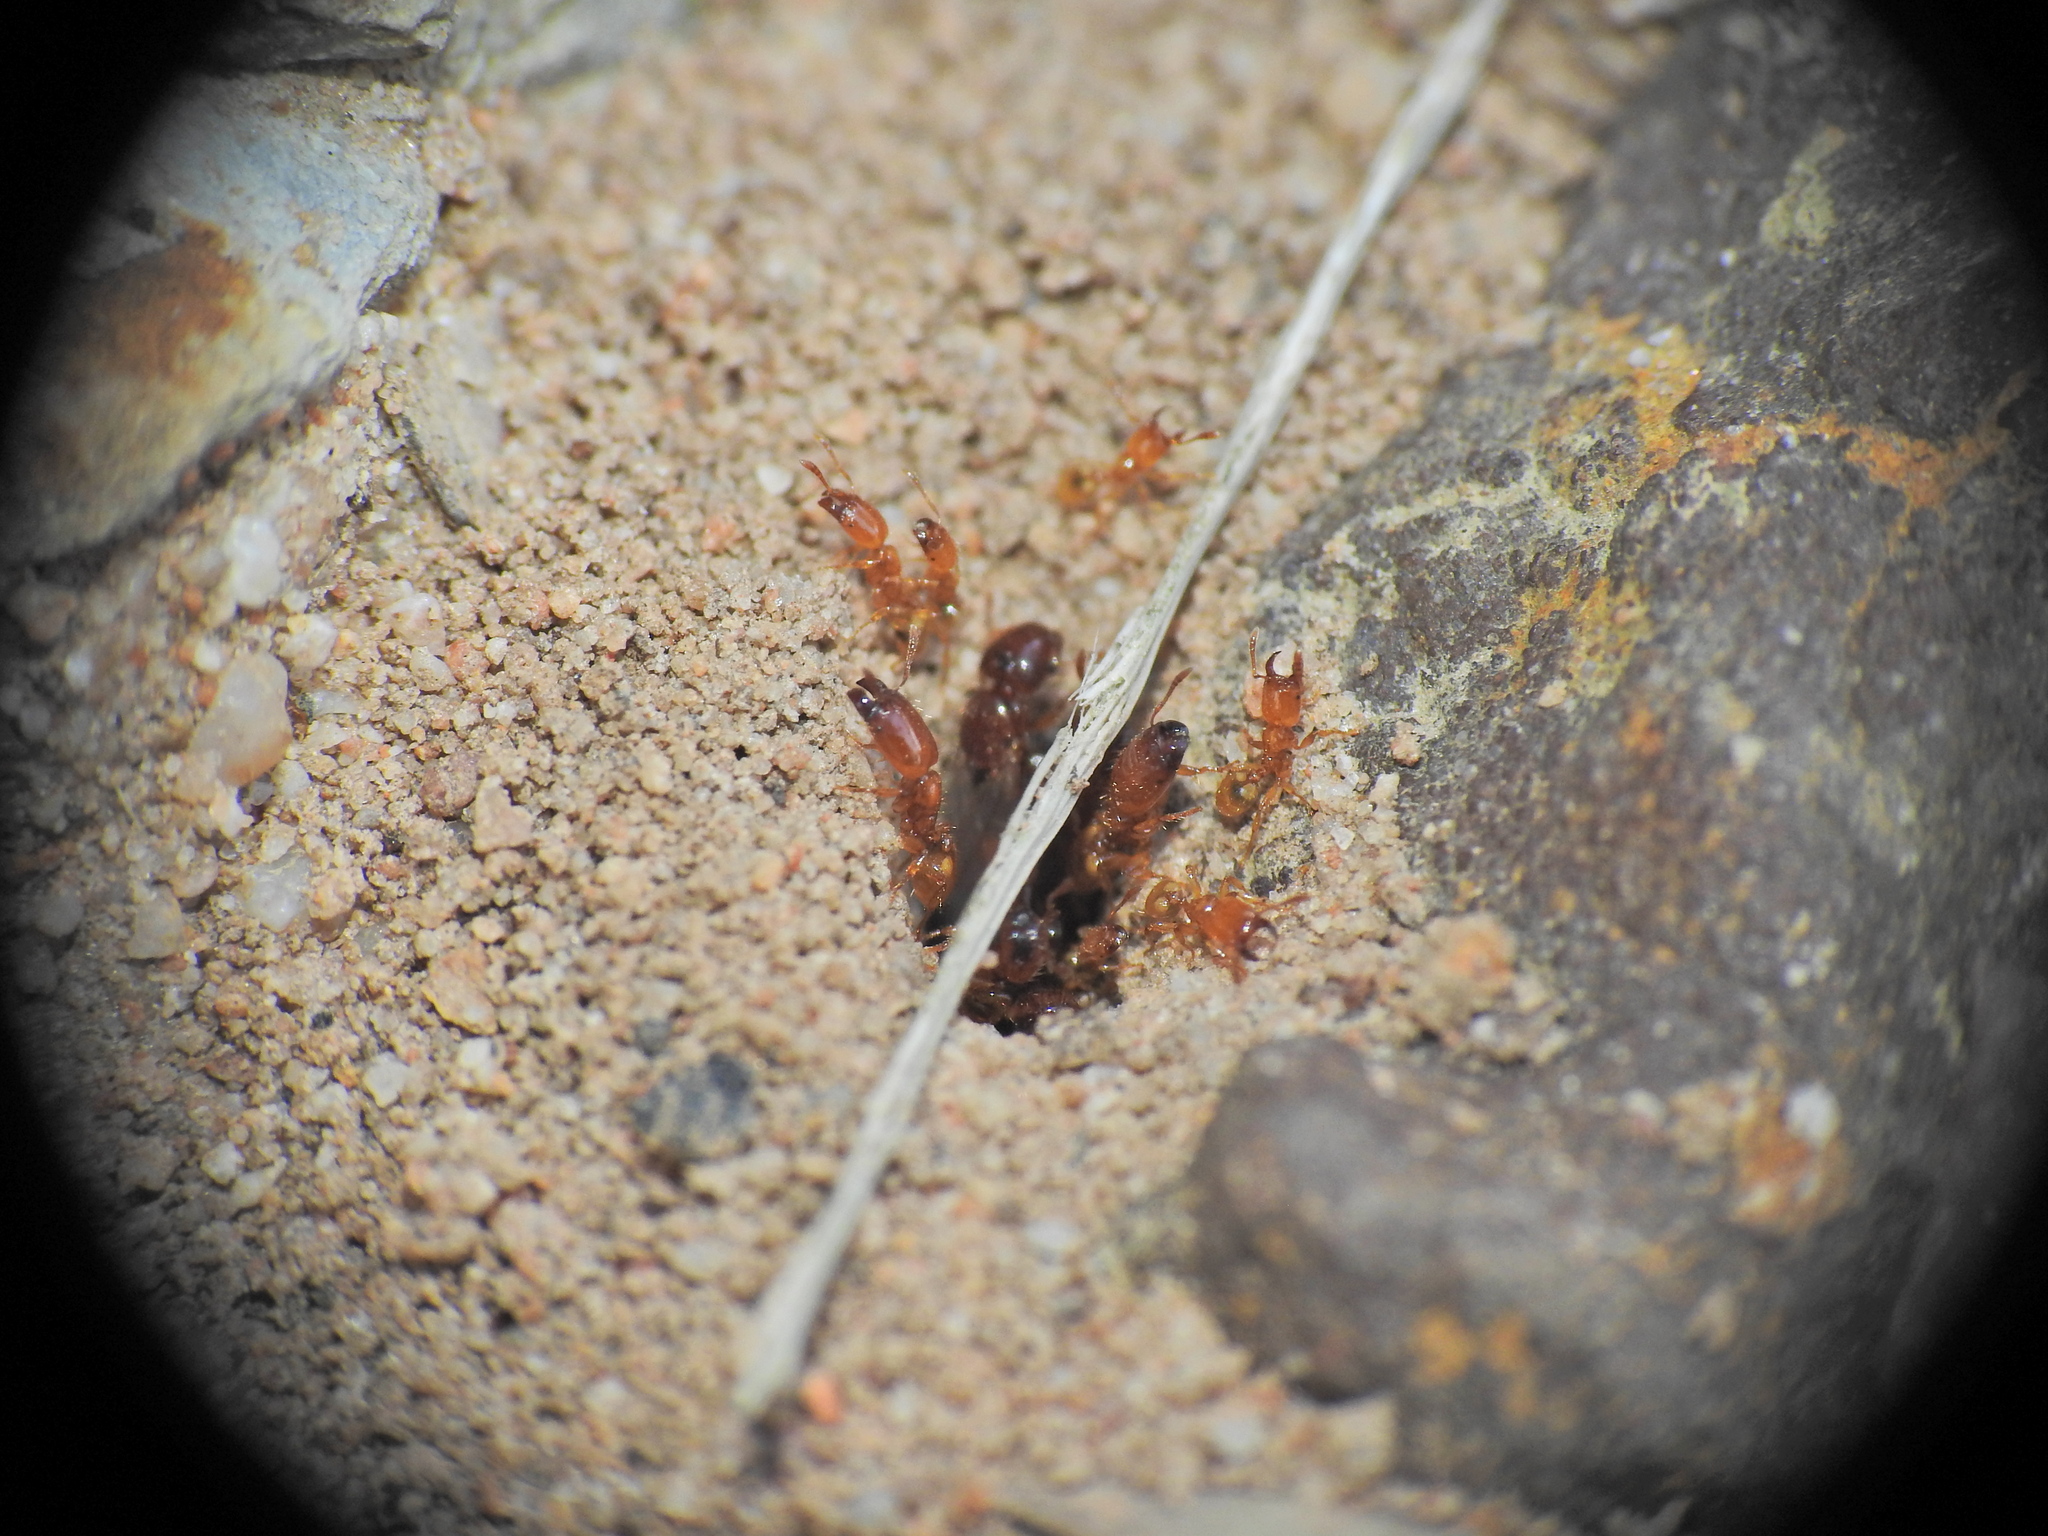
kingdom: Animalia
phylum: Arthropoda
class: Insecta
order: Hymenoptera
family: Formicidae
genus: Pheidole
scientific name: Pheidole
